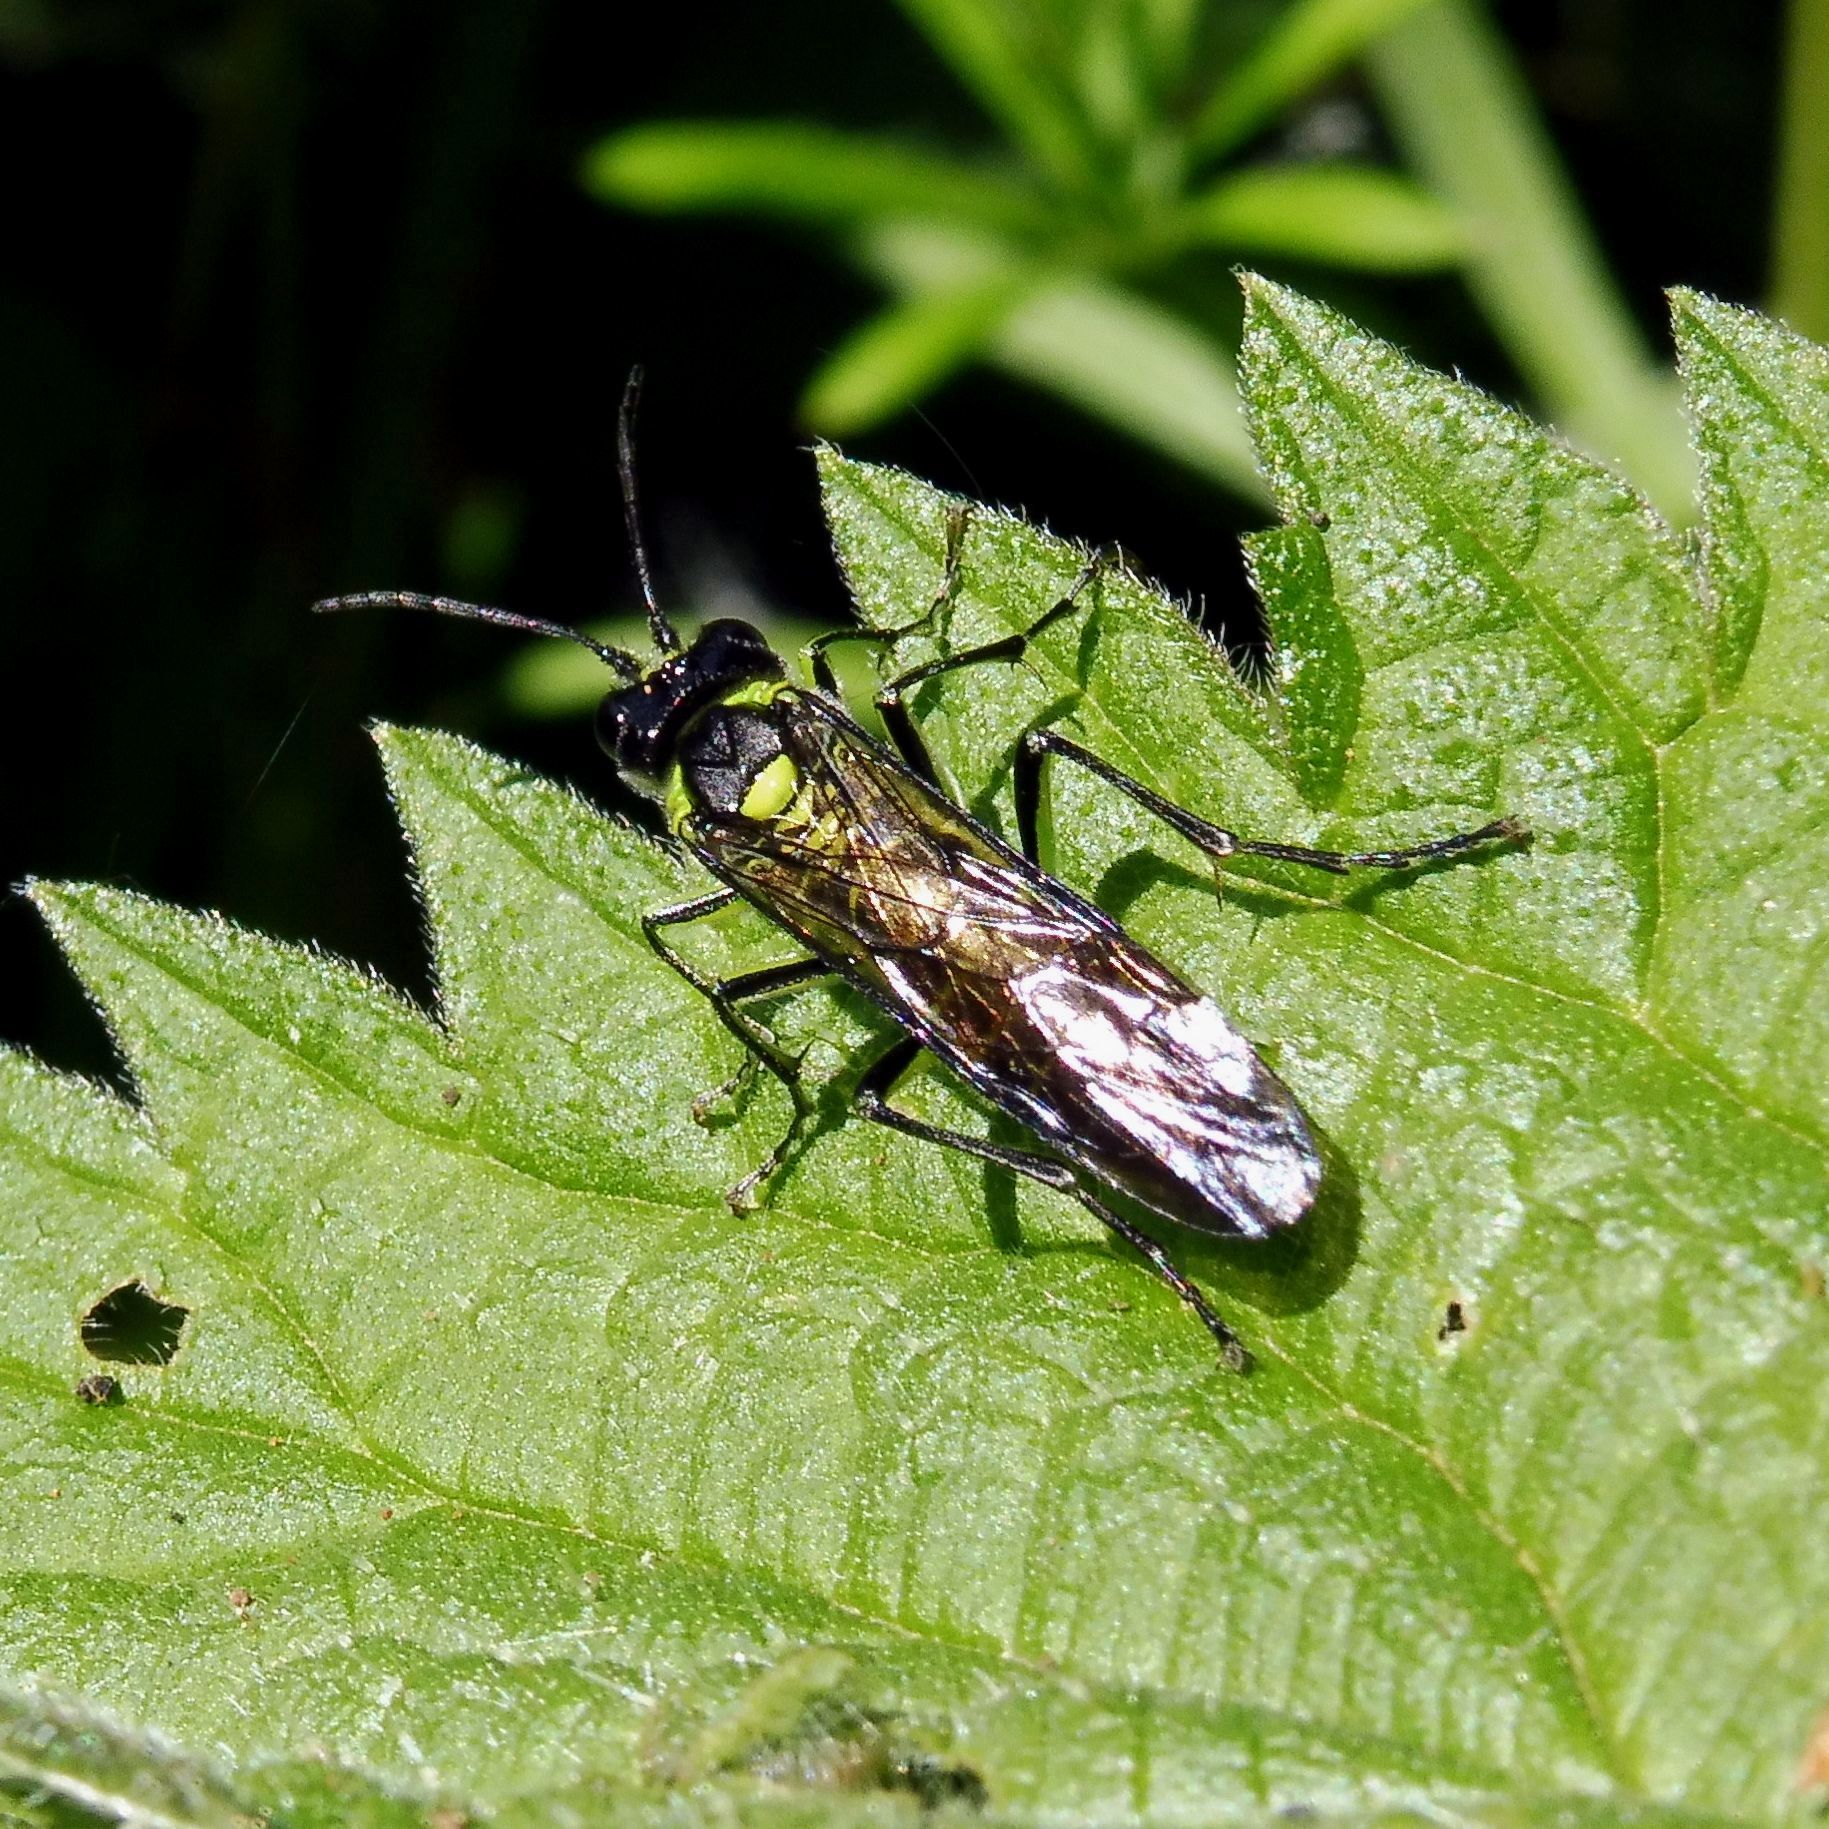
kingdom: Animalia
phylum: Arthropoda
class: Insecta
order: Hymenoptera
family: Tenthredinidae
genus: Tenthredo
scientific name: Tenthredo mesomela
